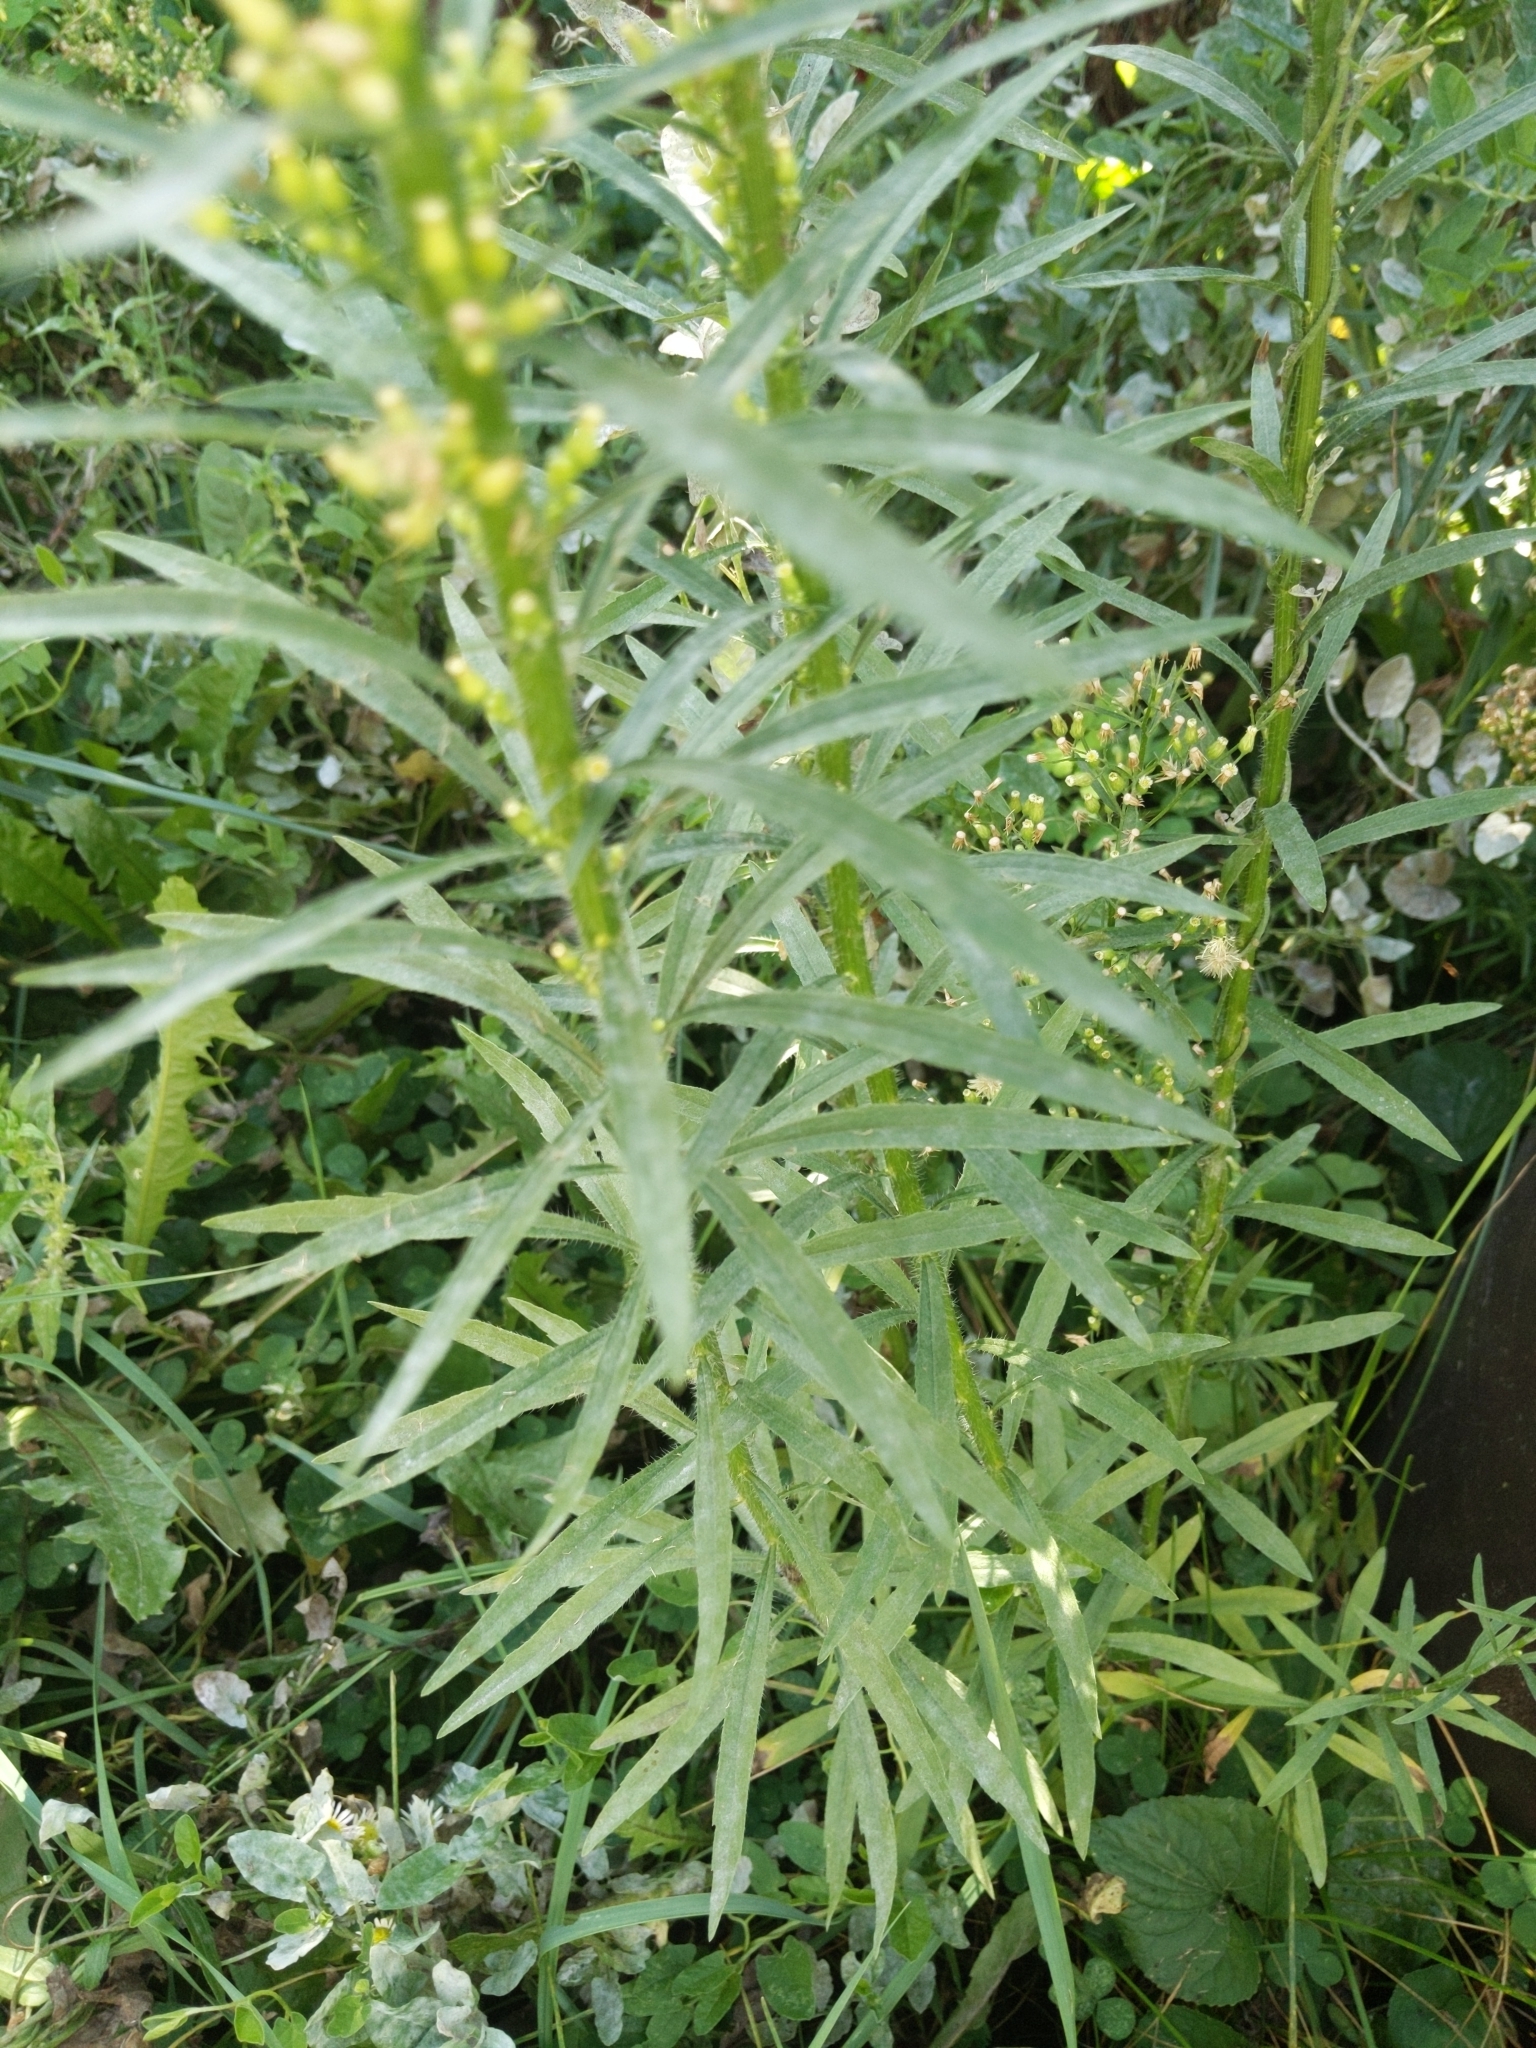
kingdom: Plantae
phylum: Tracheophyta
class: Magnoliopsida
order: Asterales
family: Asteraceae
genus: Erigeron
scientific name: Erigeron canadensis
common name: Canadian fleabane
